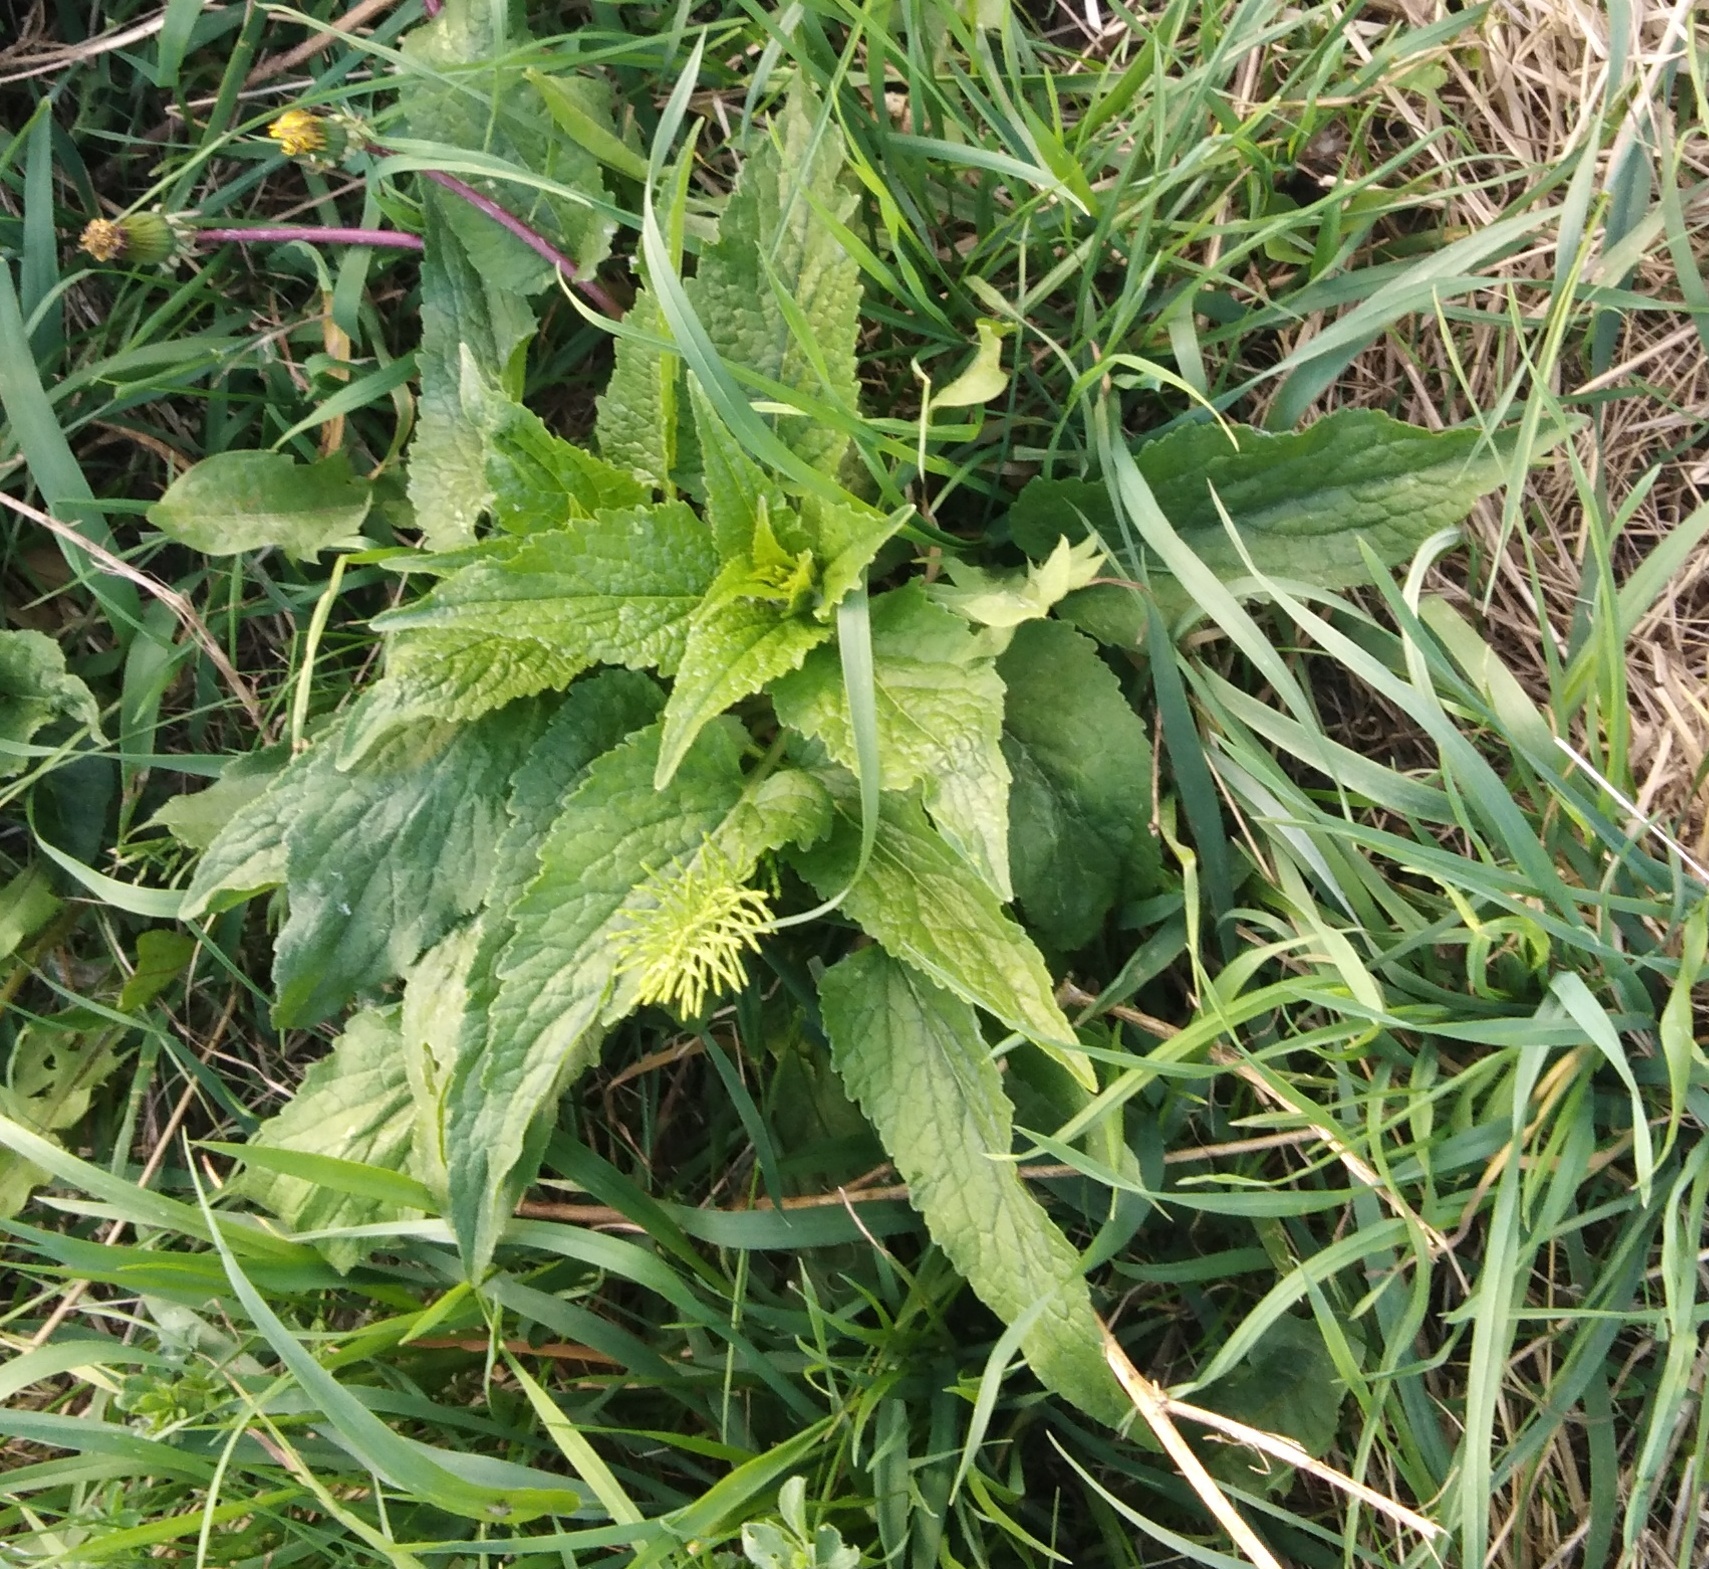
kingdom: Plantae
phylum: Tracheophyta
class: Magnoliopsida
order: Asterales
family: Campanulaceae
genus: Campanula
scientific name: Campanula rapunculoides
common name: Creeping bellflower
